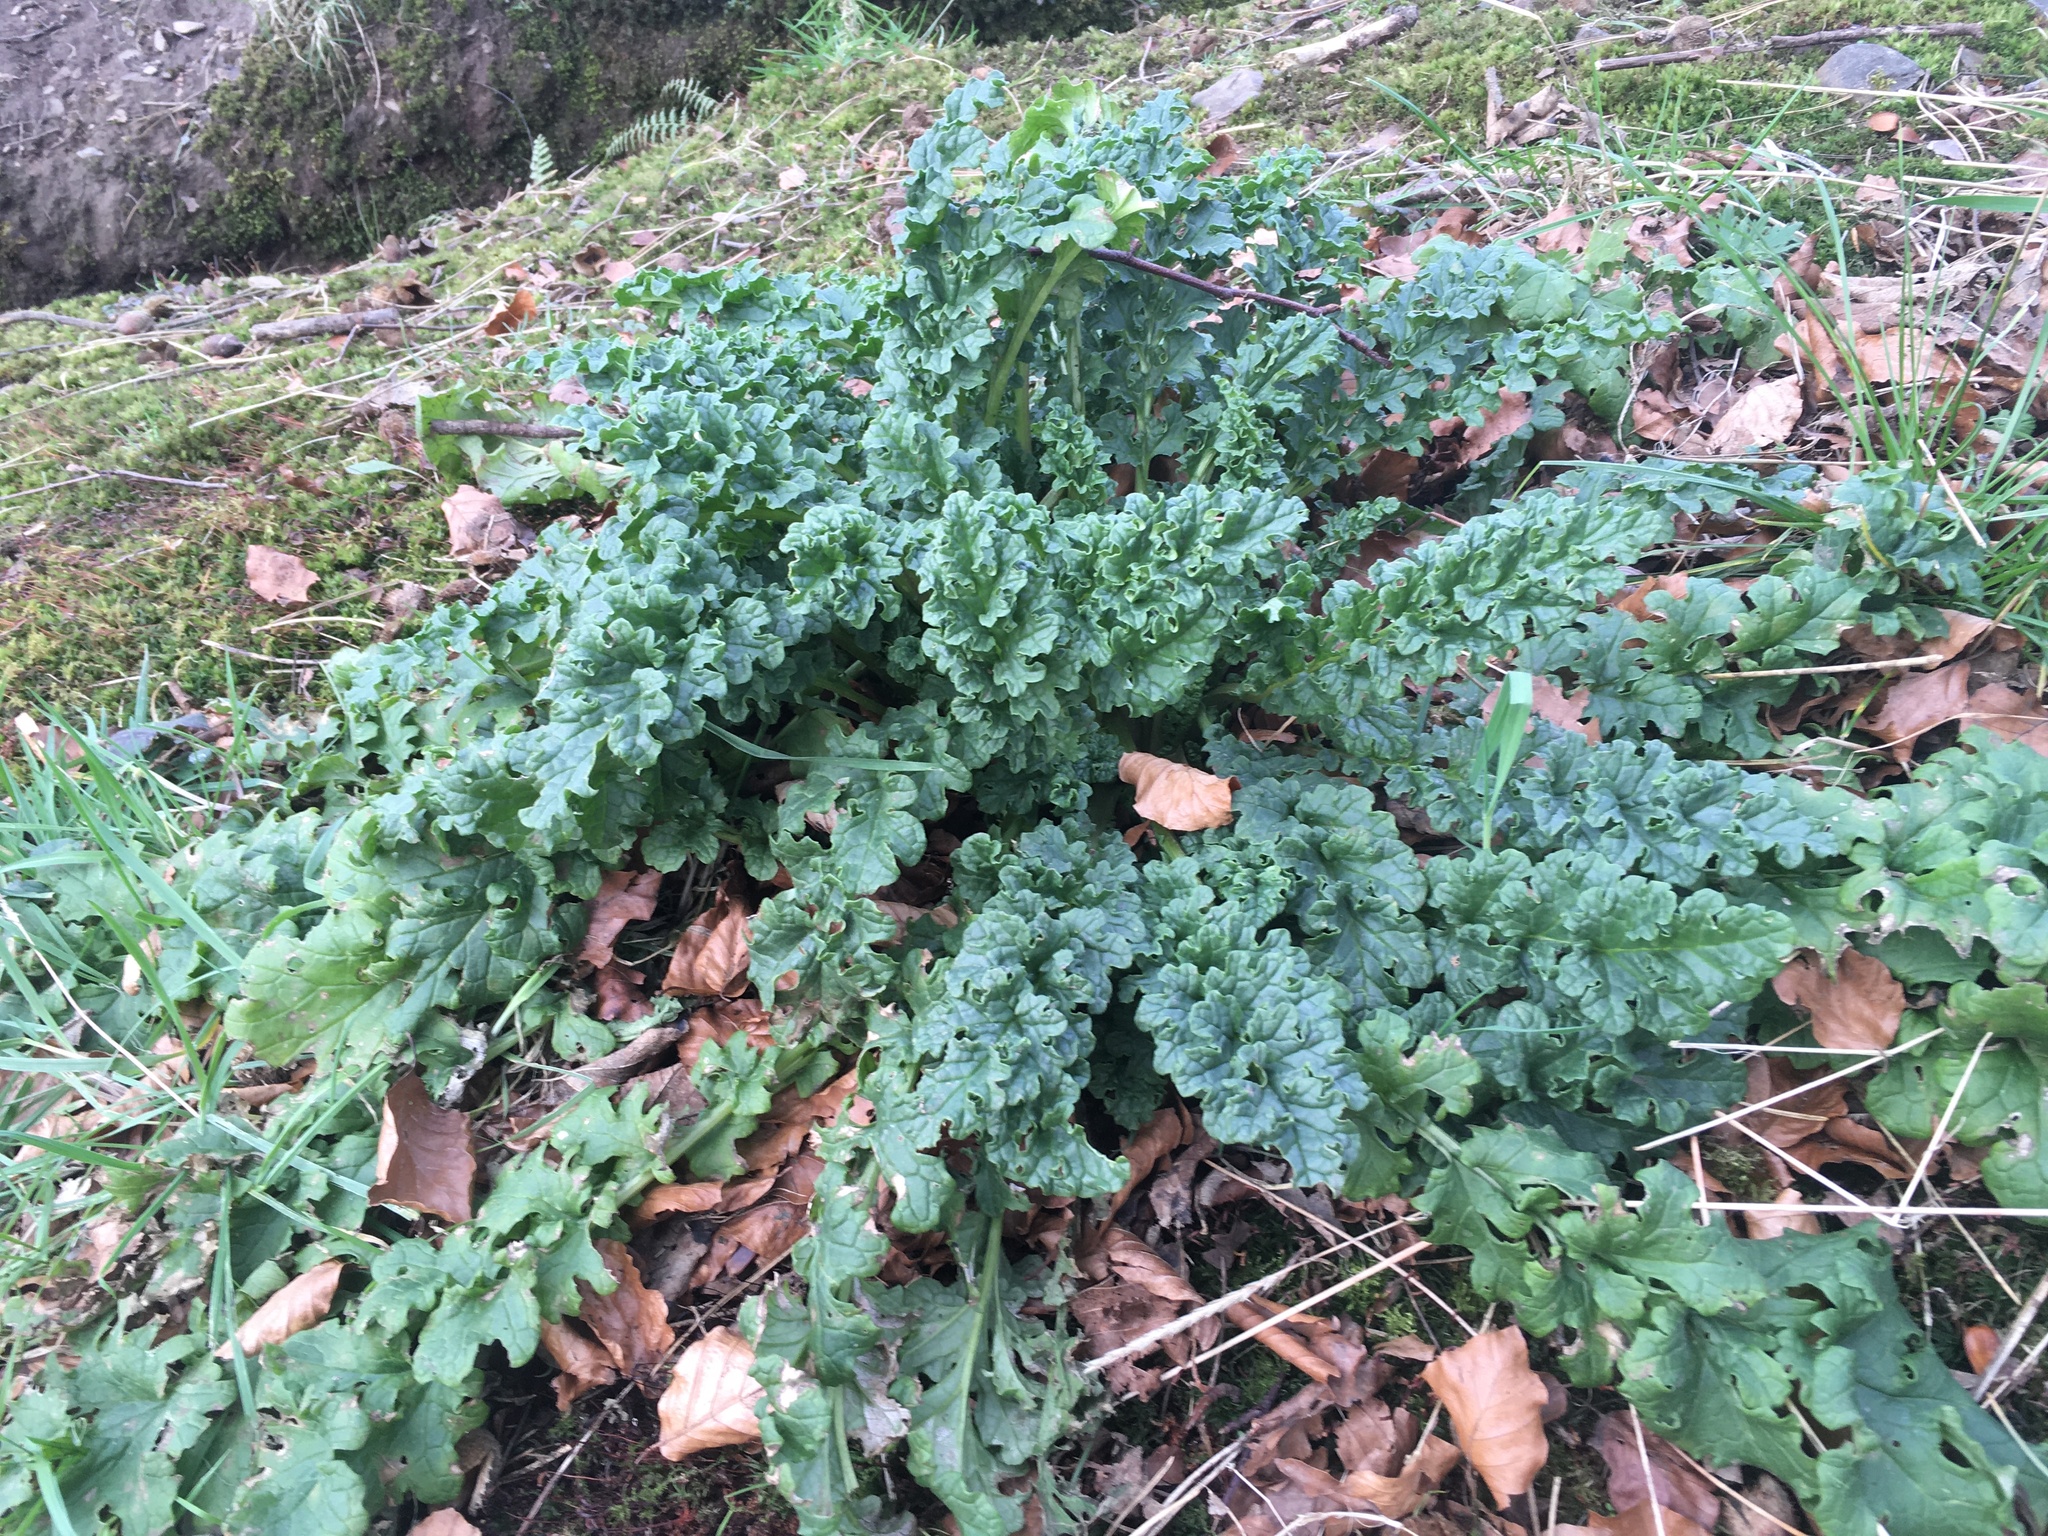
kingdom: Plantae
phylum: Tracheophyta
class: Magnoliopsida
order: Asterales
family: Asteraceae
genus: Jacobaea
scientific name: Jacobaea vulgaris
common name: Stinking willie
